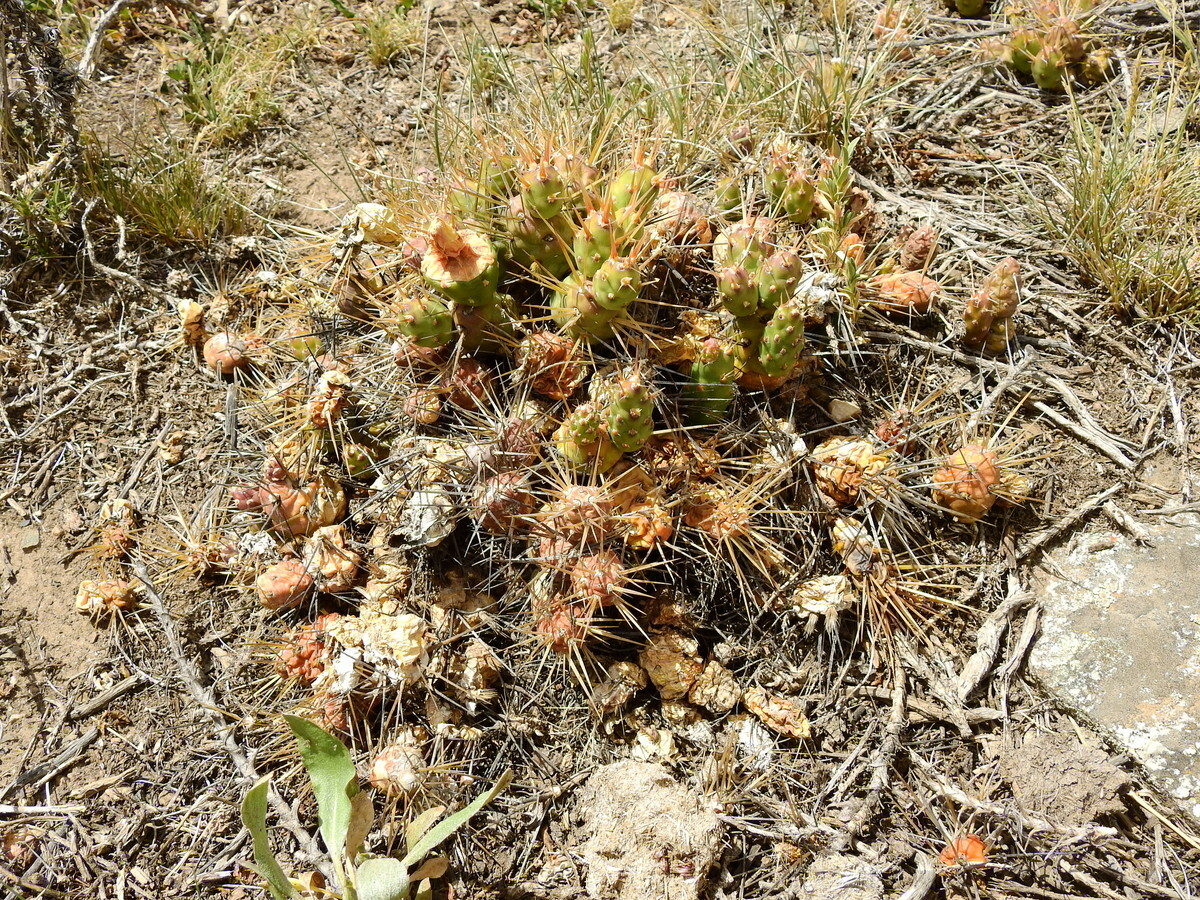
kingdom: Plantae
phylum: Tracheophyta
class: Magnoliopsida
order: Caryophyllales
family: Cactaceae
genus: Maihueniopsis
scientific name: Maihueniopsis ovata
